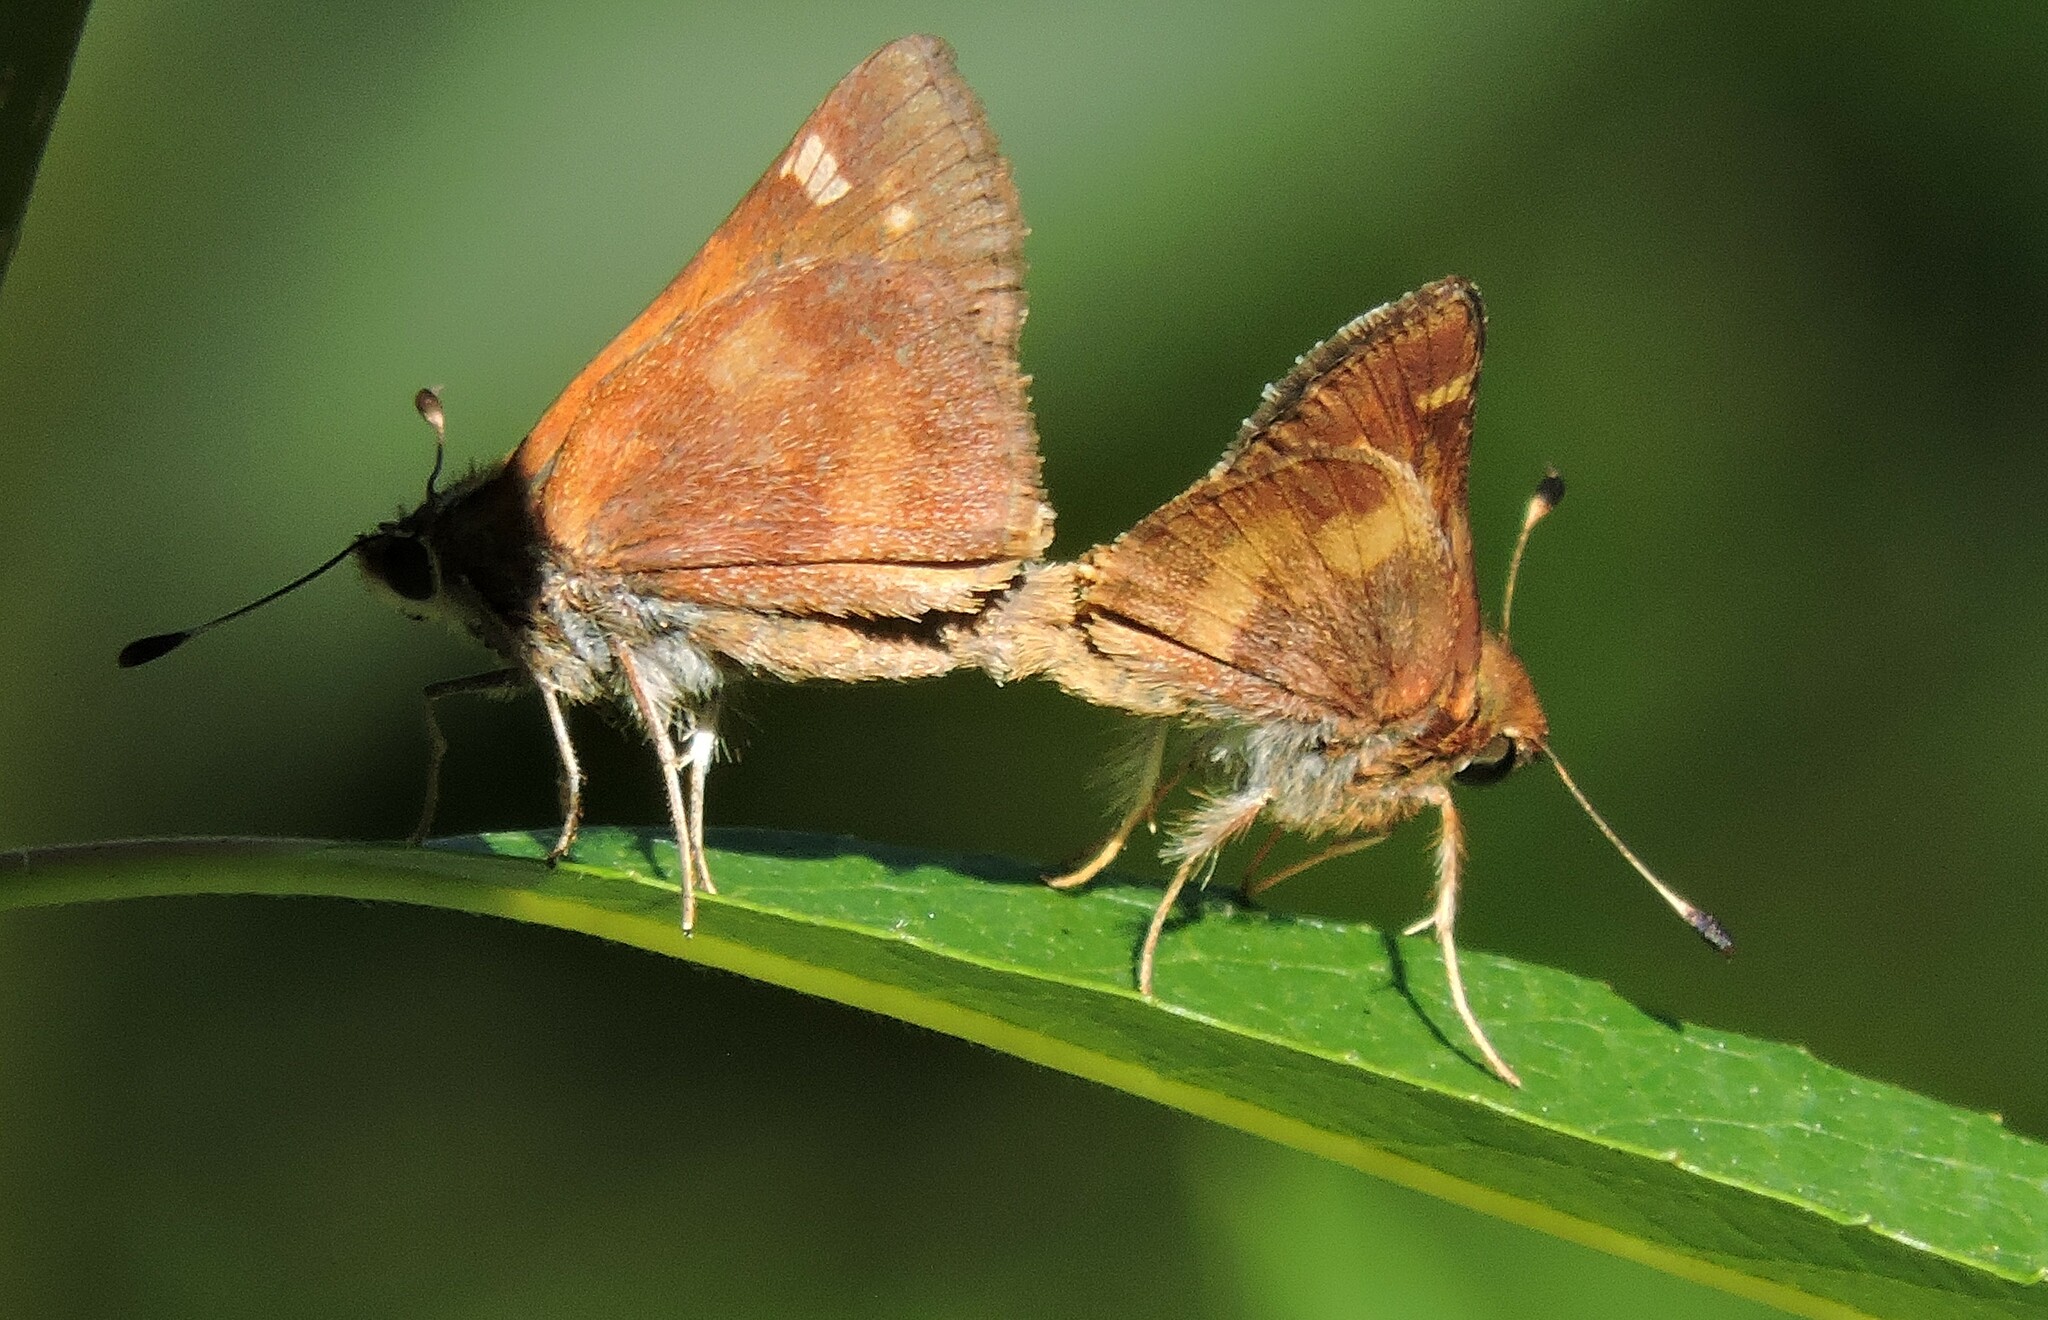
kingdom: Animalia
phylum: Arthropoda
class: Insecta
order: Lepidoptera
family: Hesperiidae
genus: Lon
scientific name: Lon melane
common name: Umber skipper
